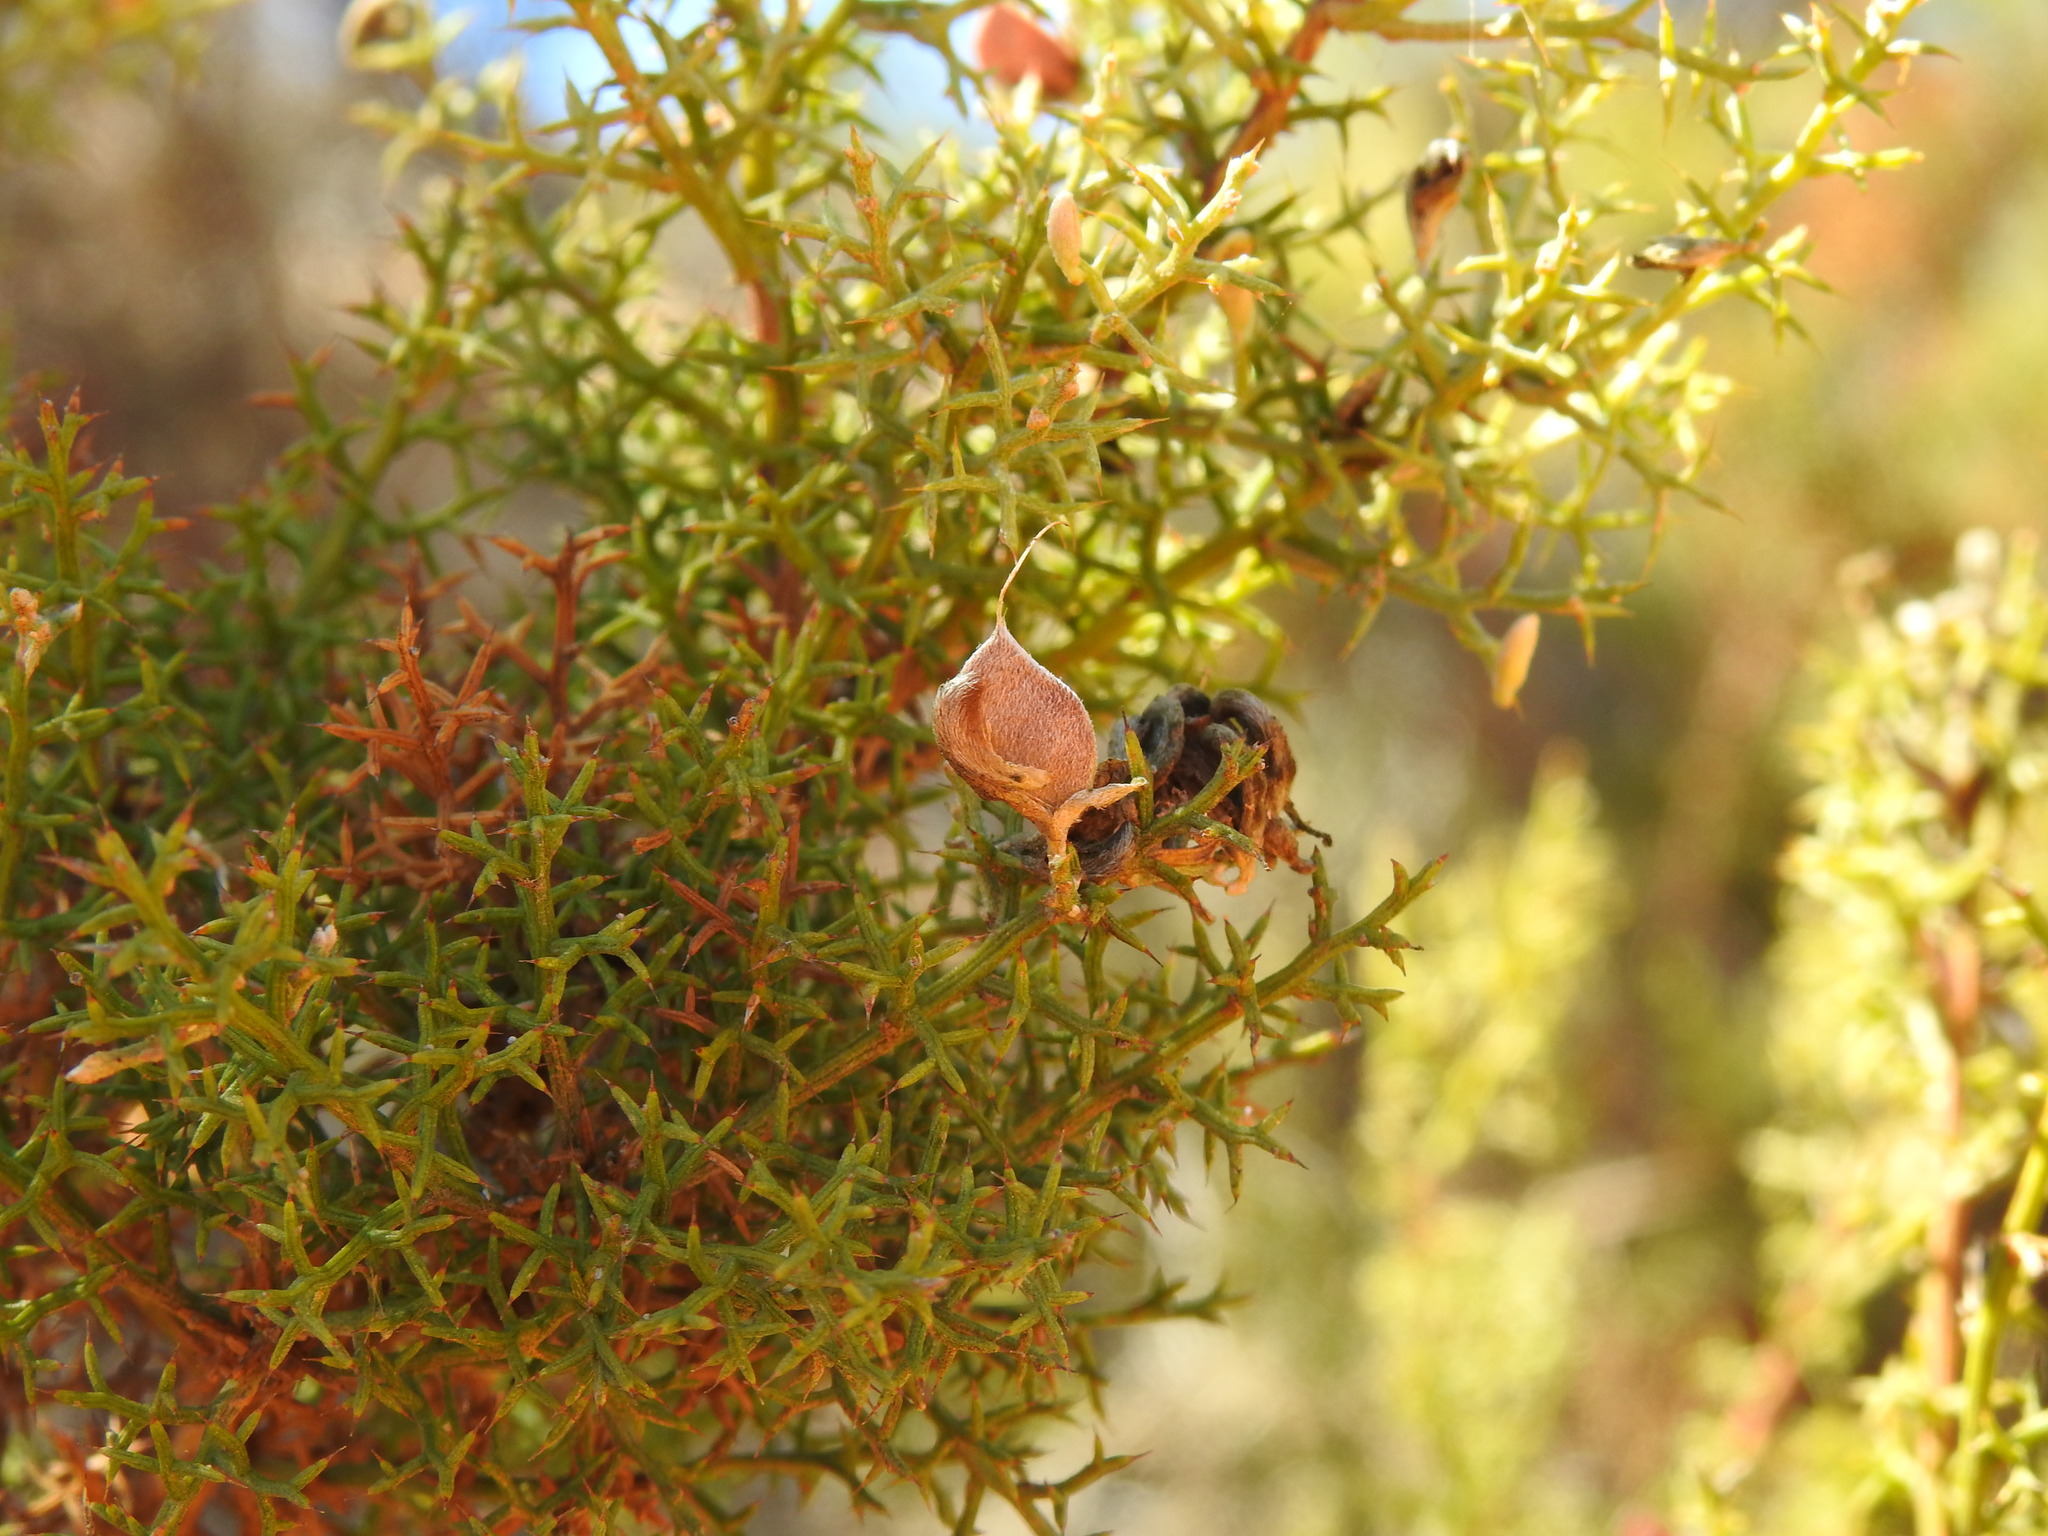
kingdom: Plantae
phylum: Tracheophyta
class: Magnoliopsida
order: Fabales
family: Fabaceae
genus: Stauracanthus
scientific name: Stauracanthus boivinii
